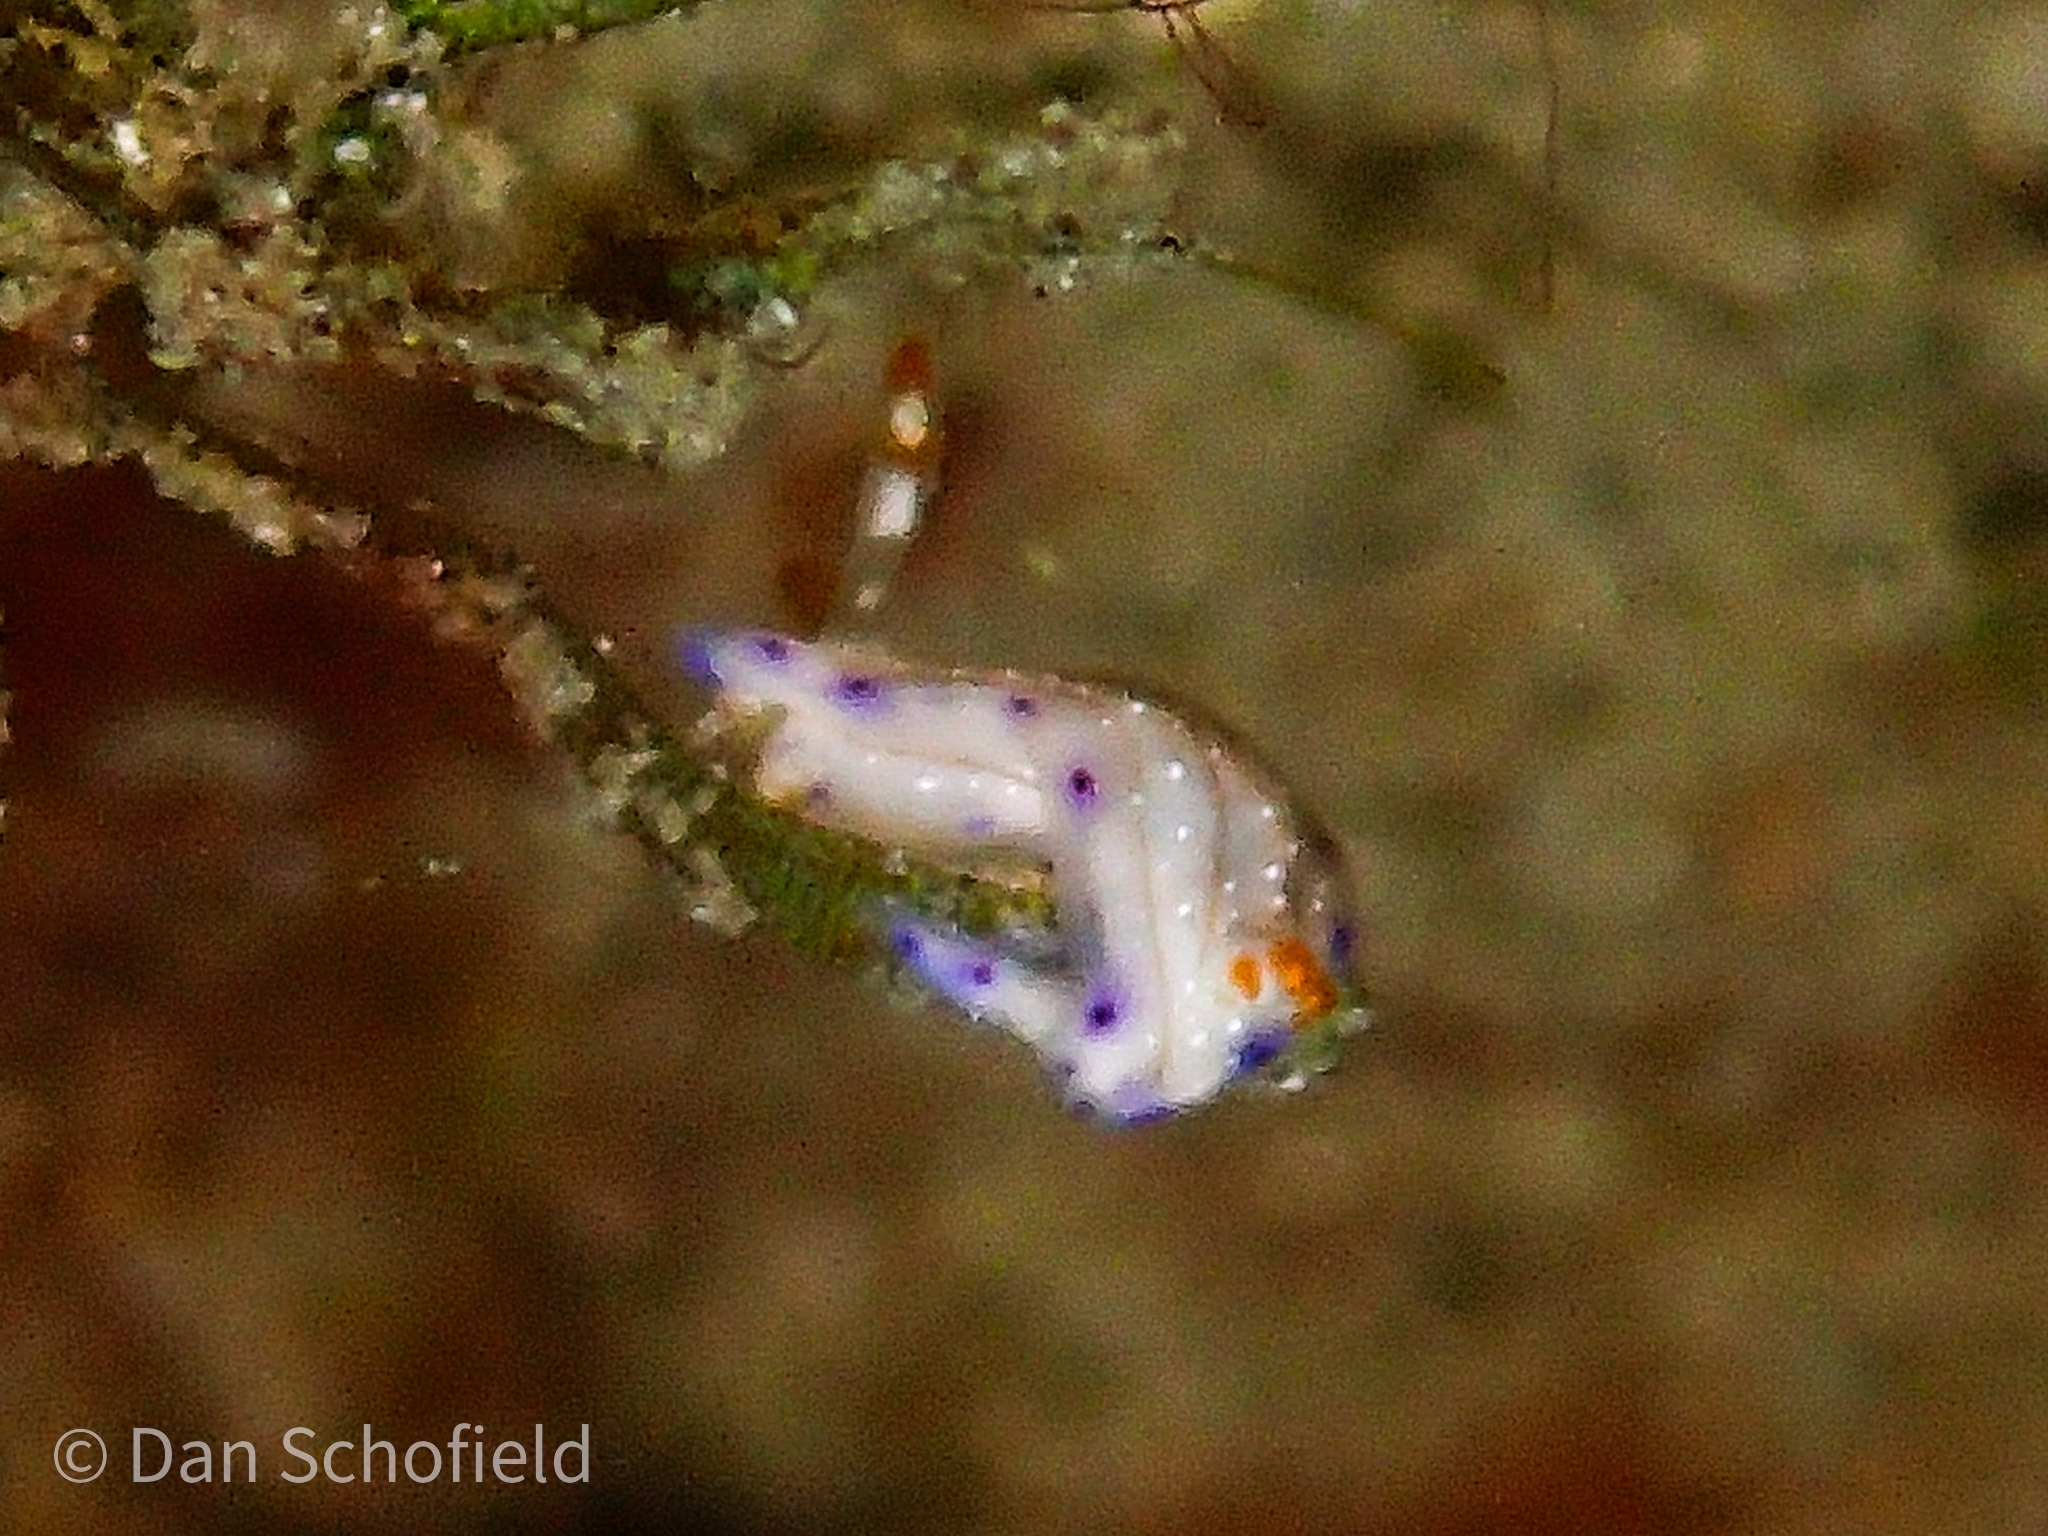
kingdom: Animalia
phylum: Mollusca
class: Gastropoda
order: Nudibranchia
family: Chromodorididae
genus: Hypselodoris
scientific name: Hypselodoris skyleri
